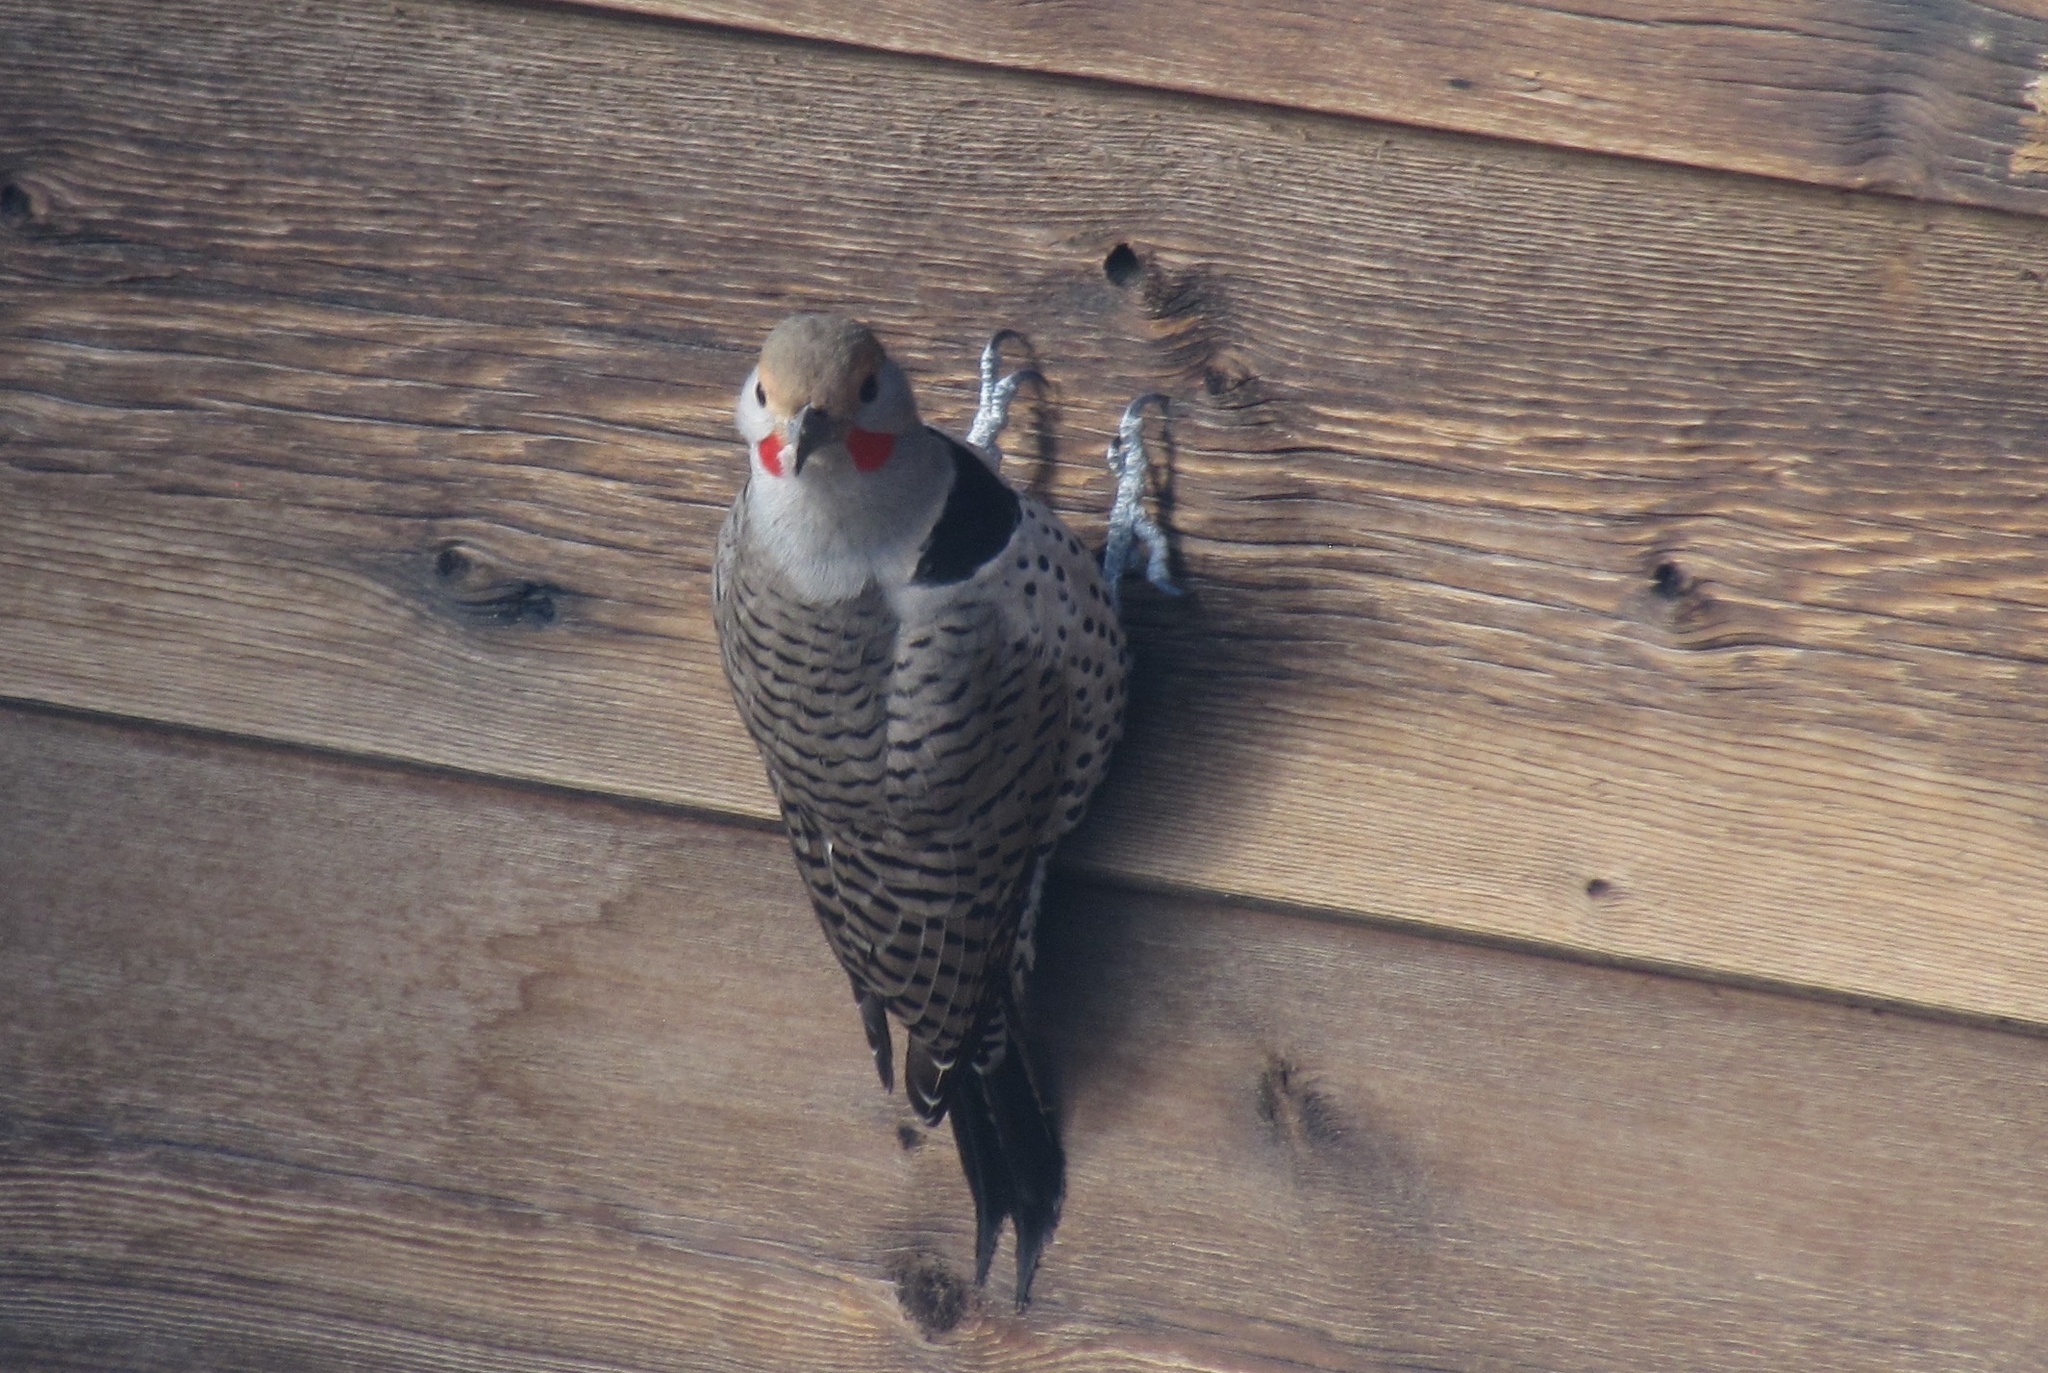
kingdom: Animalia
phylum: Chordata
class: Aves
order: Piciformes
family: Picidae
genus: Colaptes
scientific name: Colaptes auratus
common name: Northern flicker
